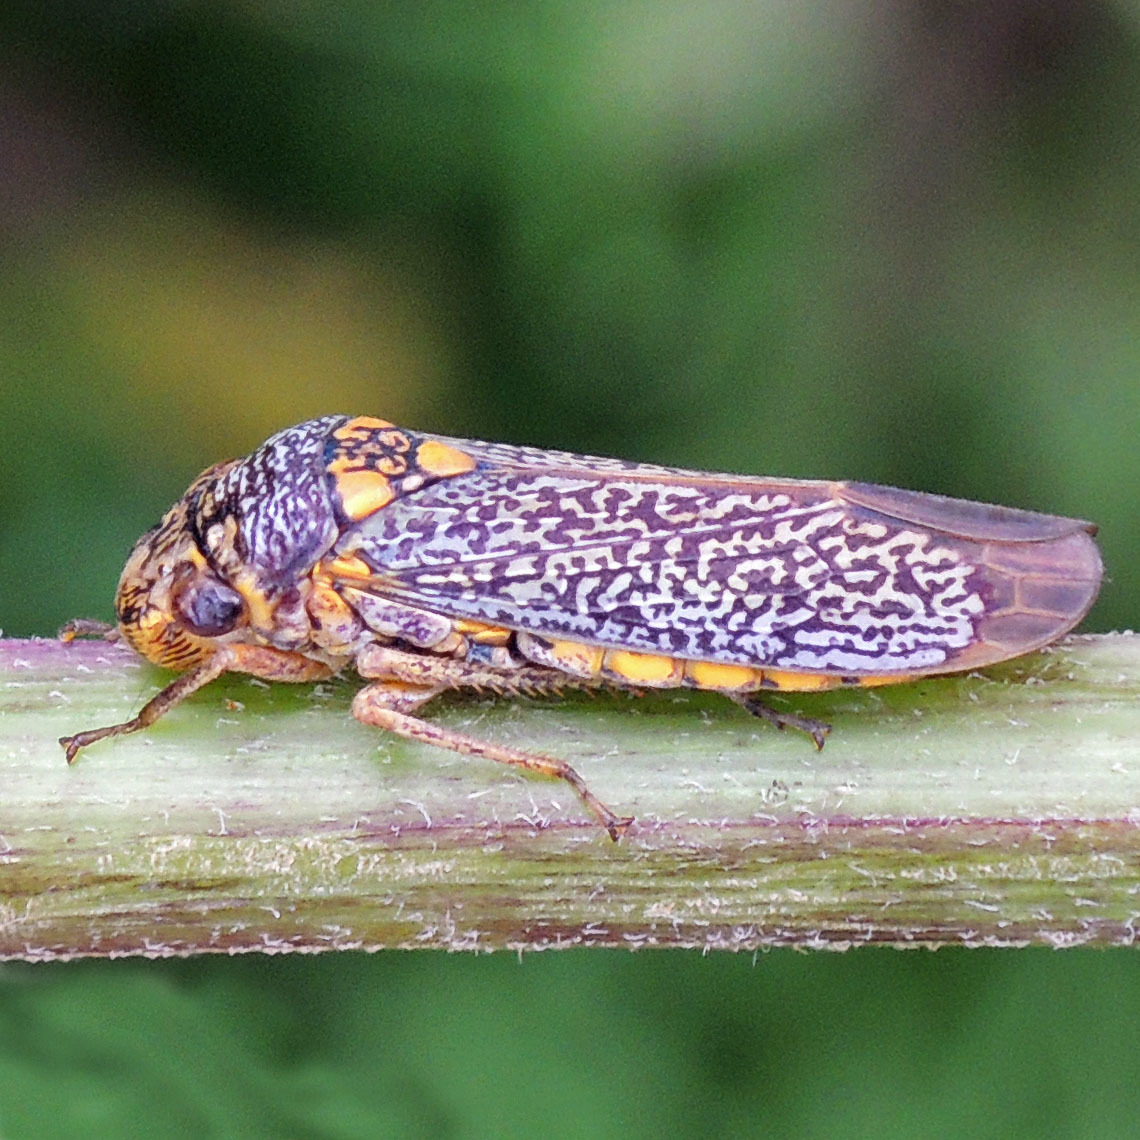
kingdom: Animalia
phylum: Arthropoda
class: Insecta
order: Hemiptera
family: Cicadellidae
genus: Oncometopia
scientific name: Oncometopia orbona
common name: Broad-headed sharpshooter
